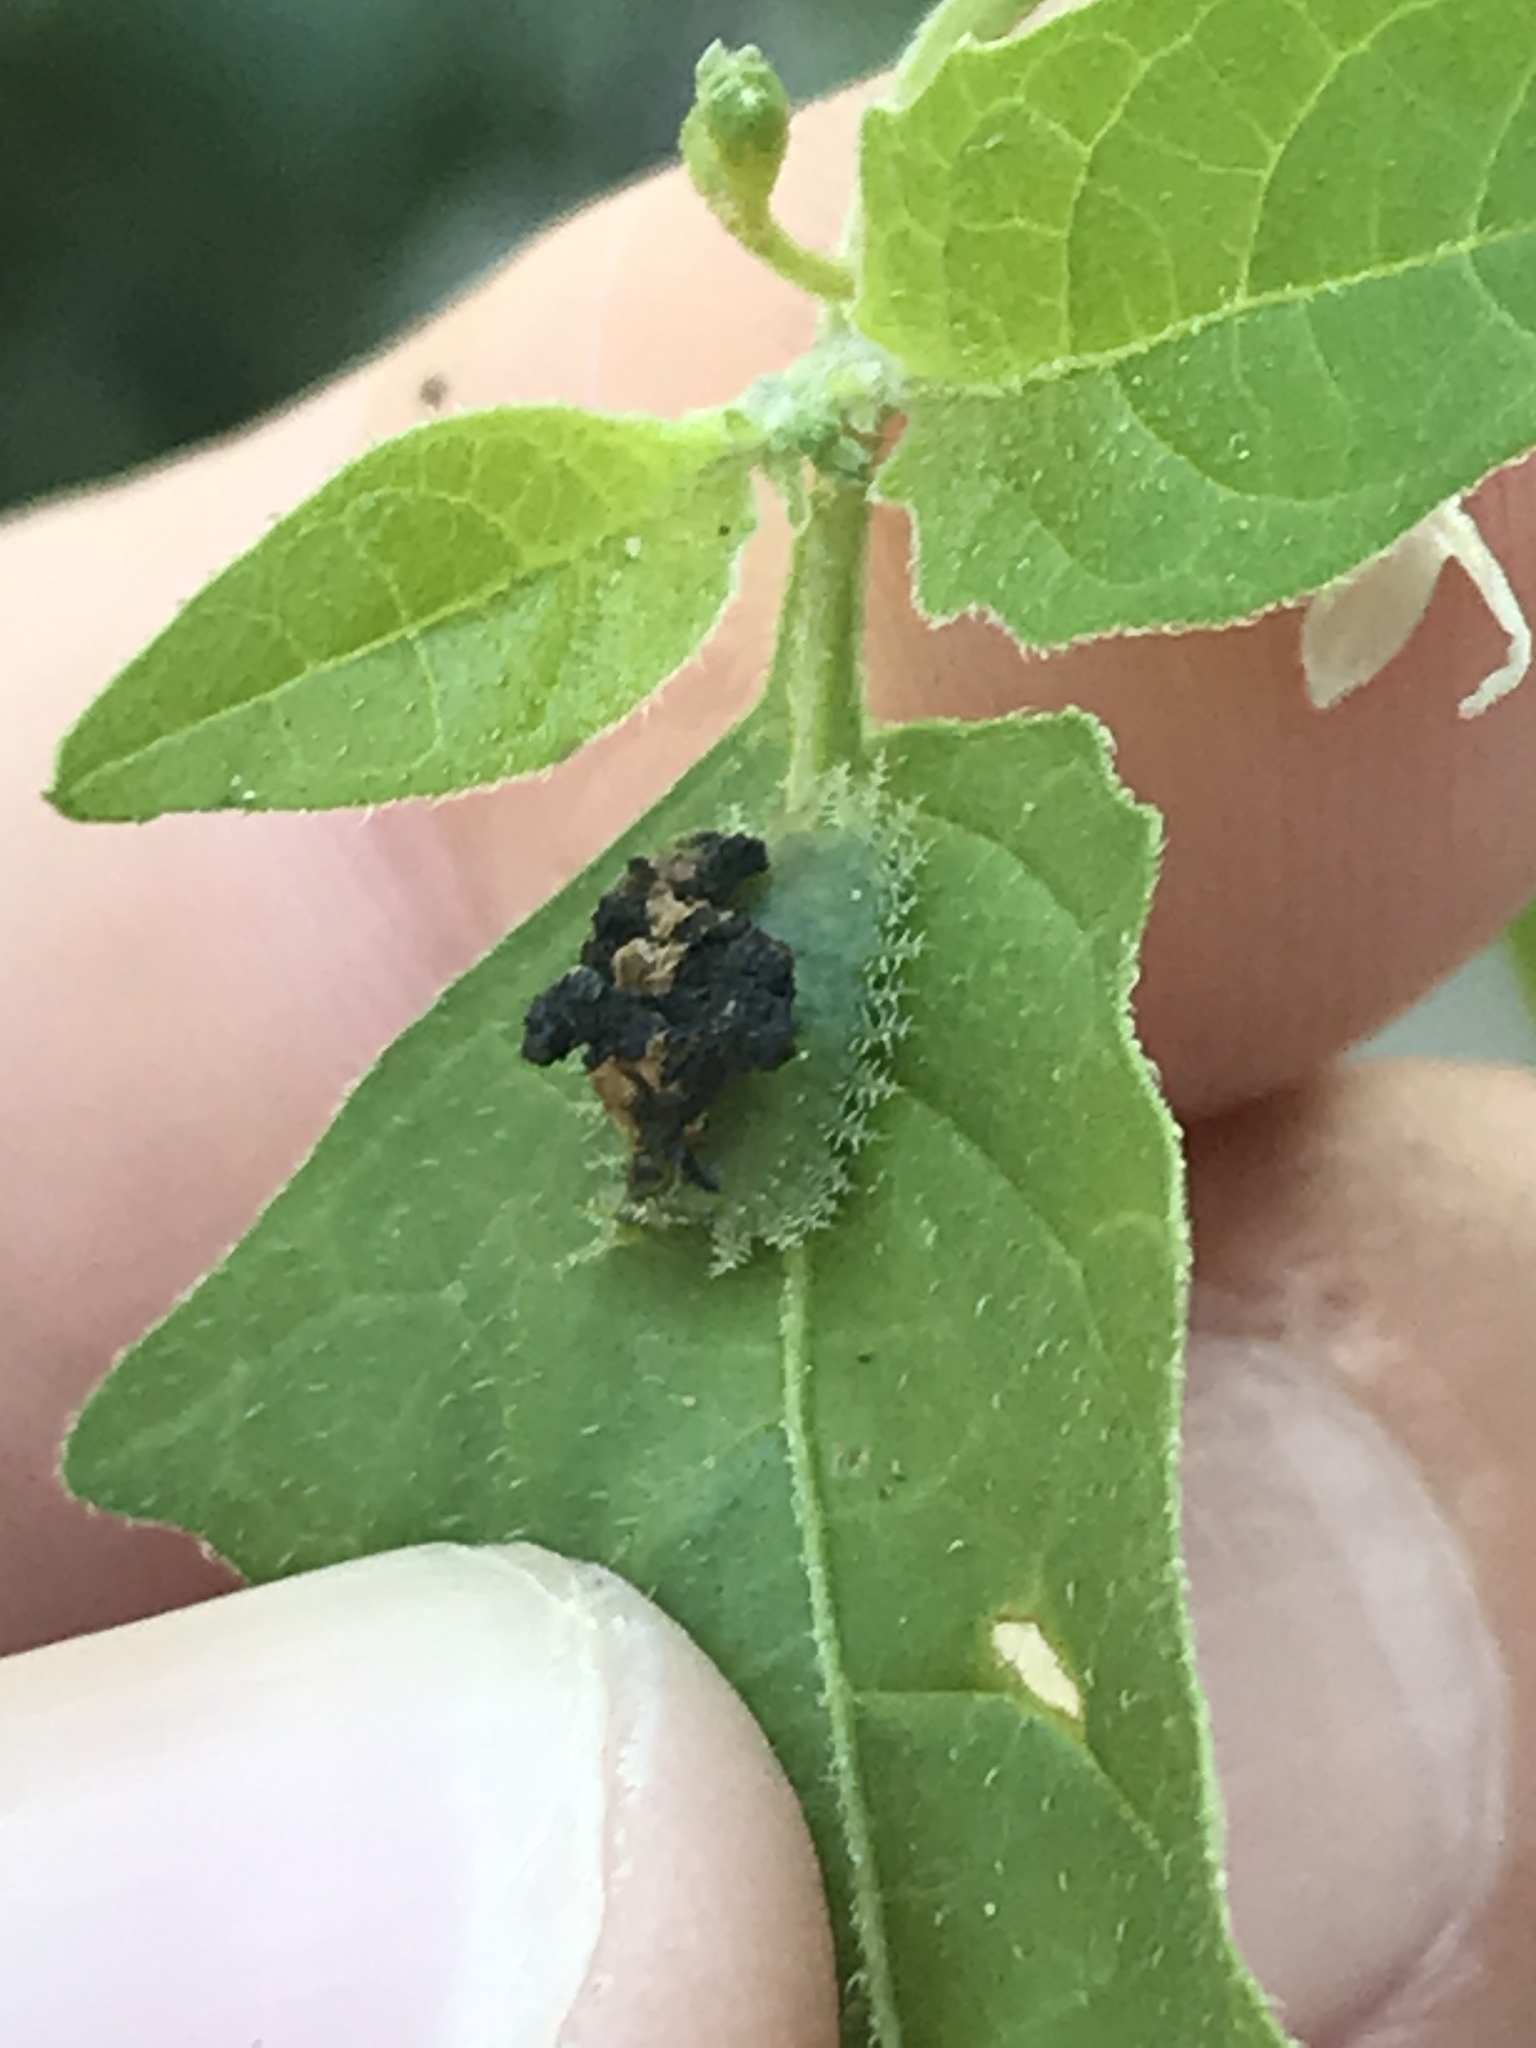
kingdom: Animalia
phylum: Arthropoda
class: Insecta
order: Coleoptera
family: Chrysomelidae
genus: Helocassis
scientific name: Helocassis clavata
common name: Clavate tortoise beetle
